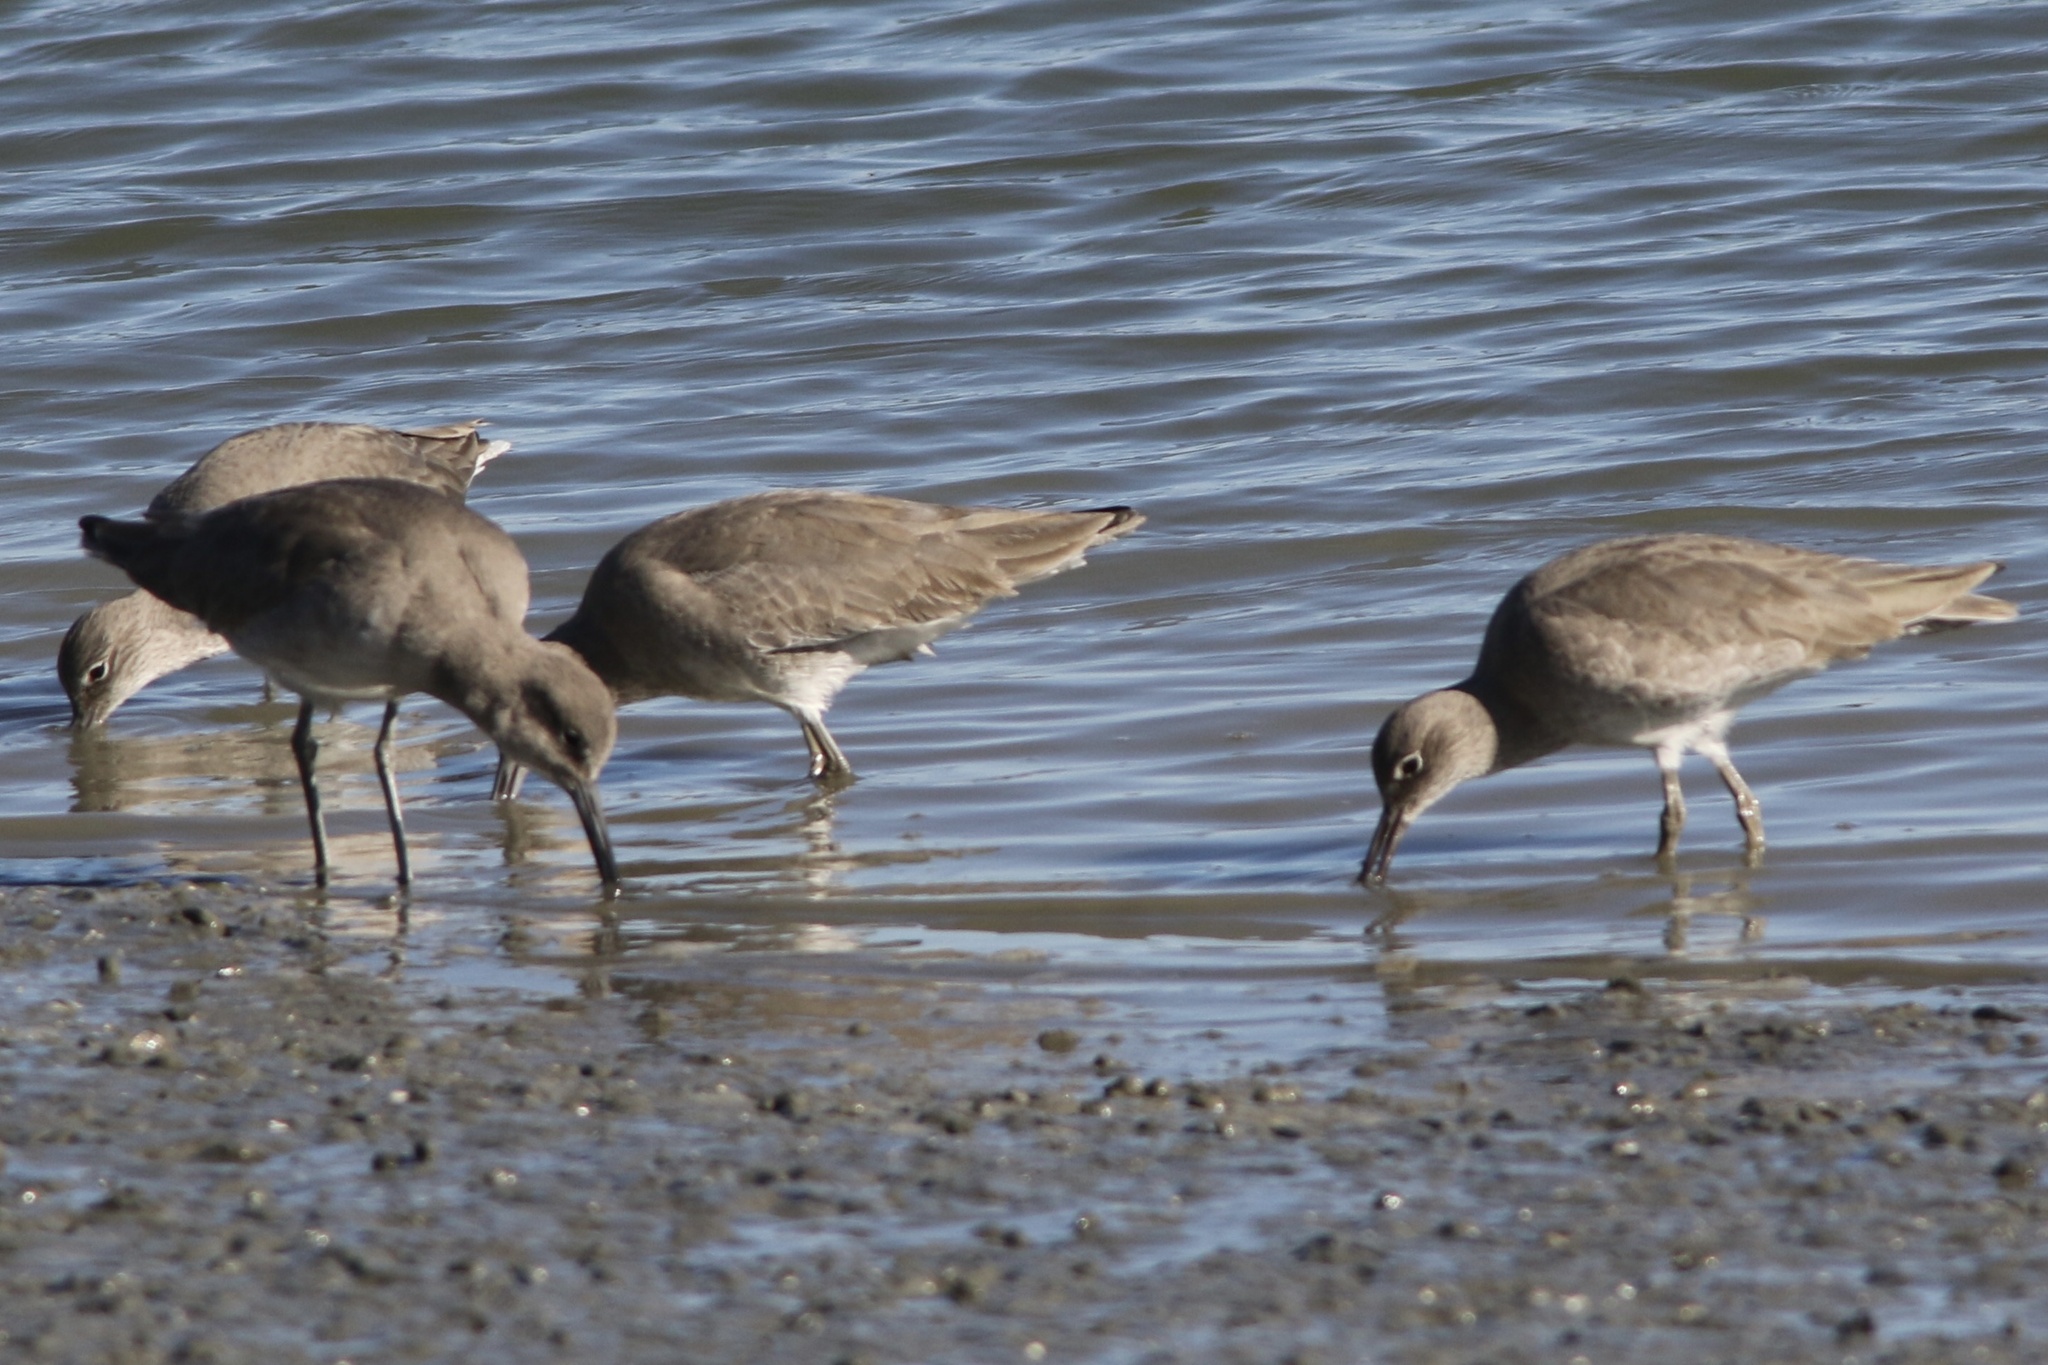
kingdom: Animalia
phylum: Chordata
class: Aves
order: Charadriiformes
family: Scolopacidae
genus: Tringa
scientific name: Tringa semipalmata
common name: Willet
